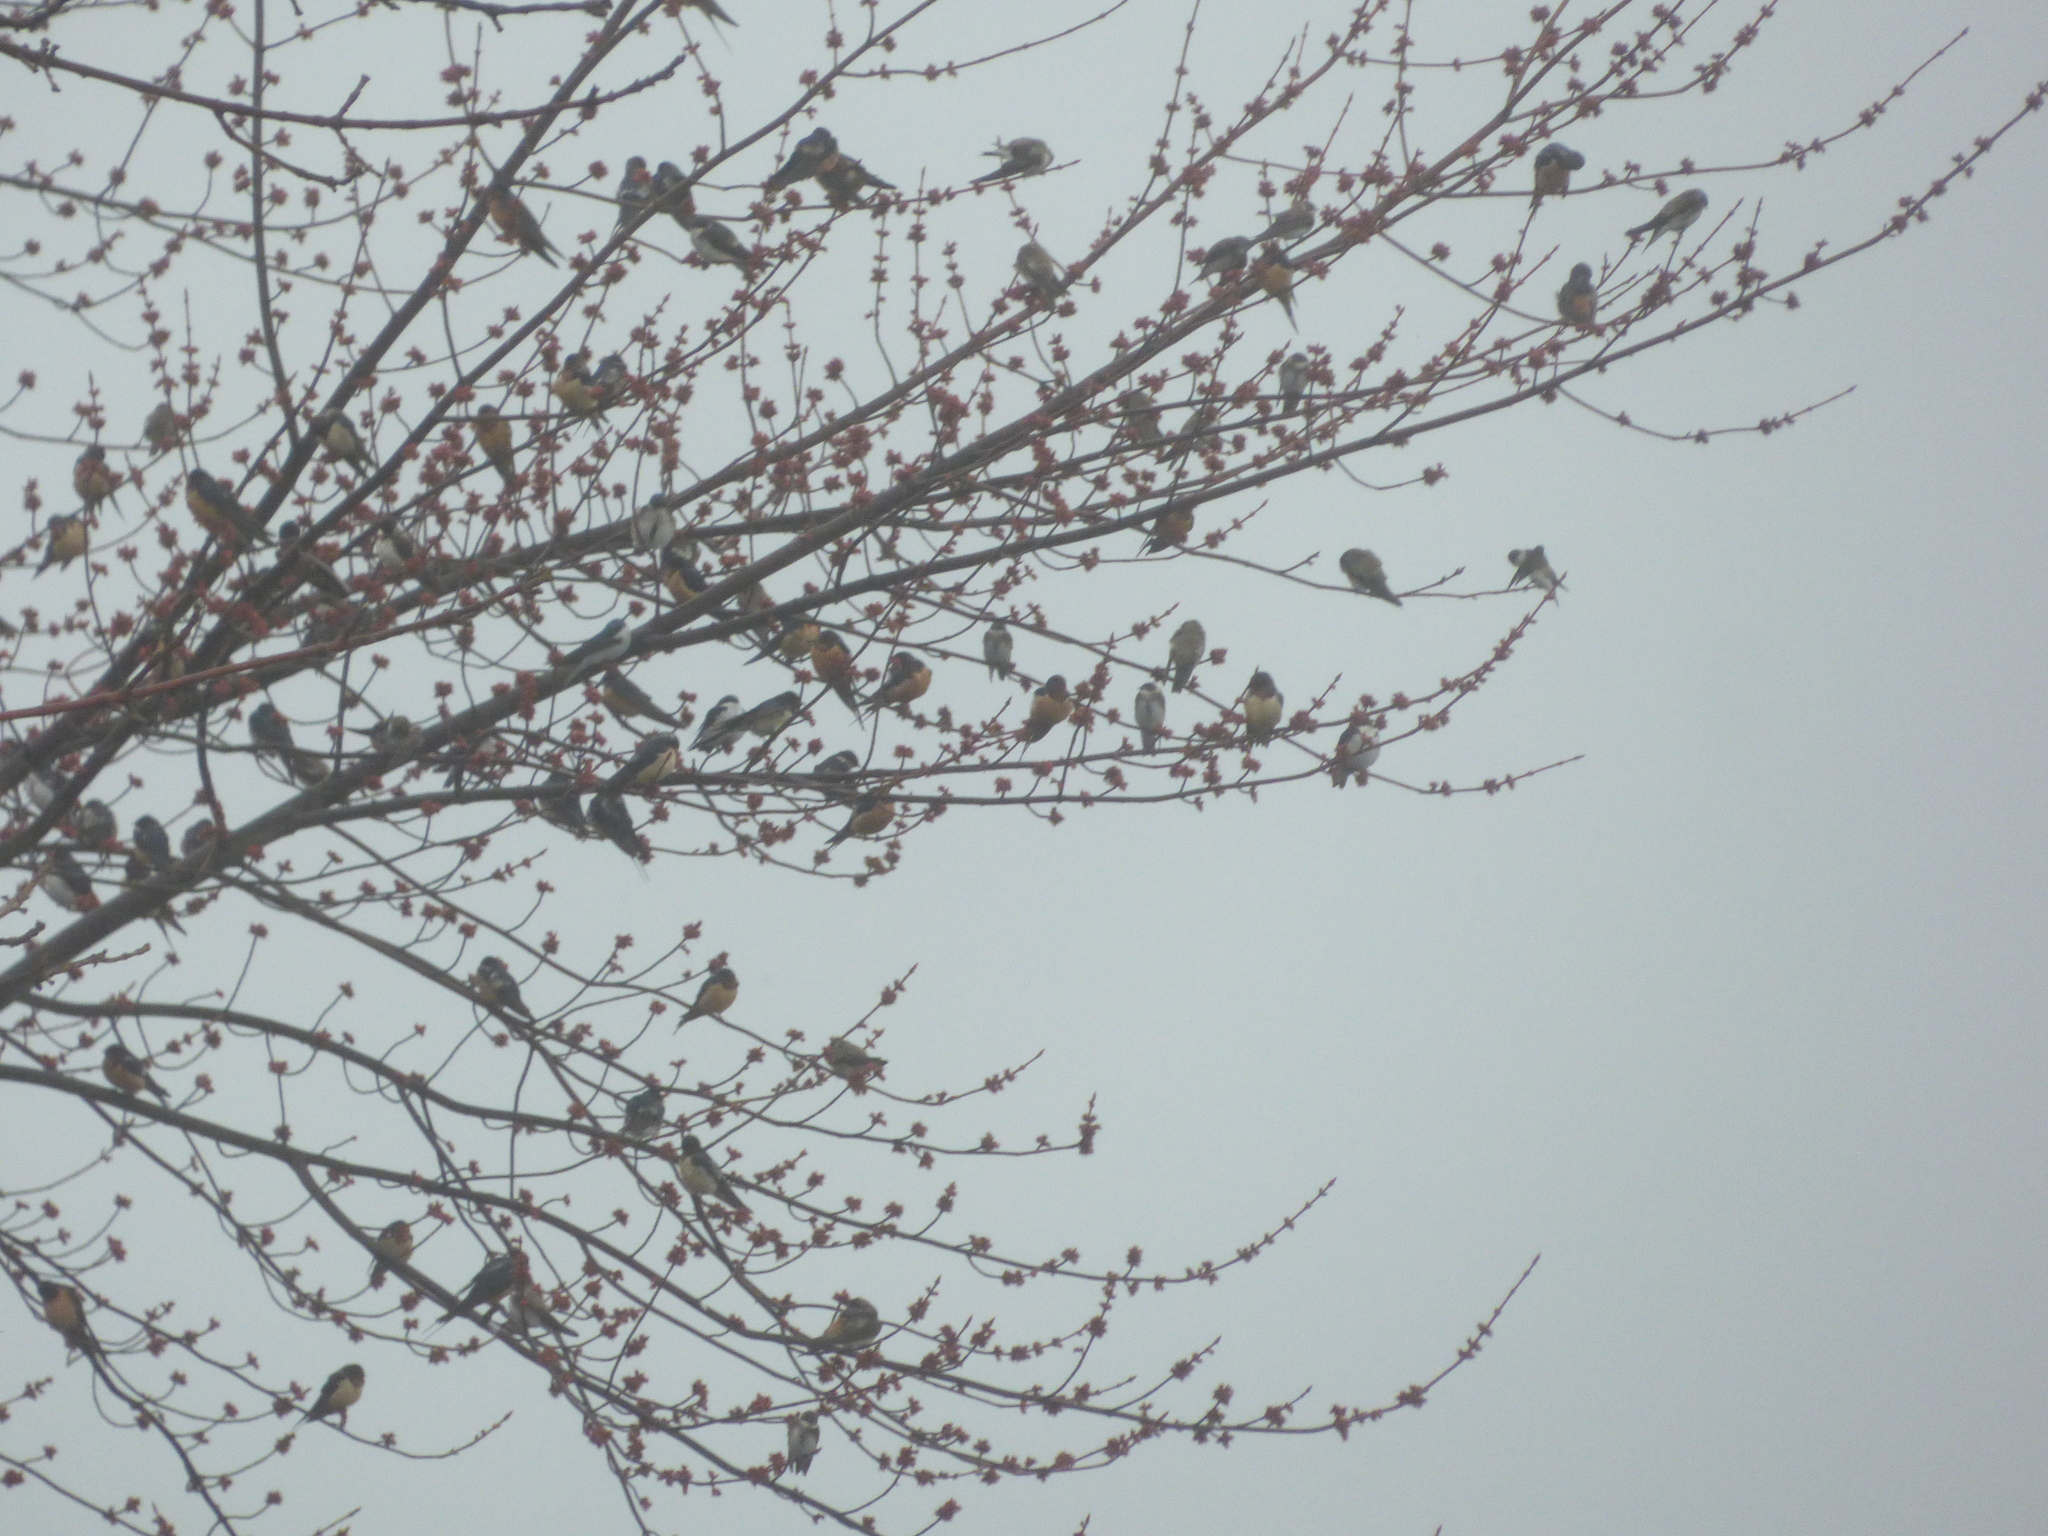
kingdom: Animalia
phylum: Chordata
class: Aves
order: Passeriformes
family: Hirundinidae
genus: Hirundo
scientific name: Hirundo rustica
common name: Barn swallow
